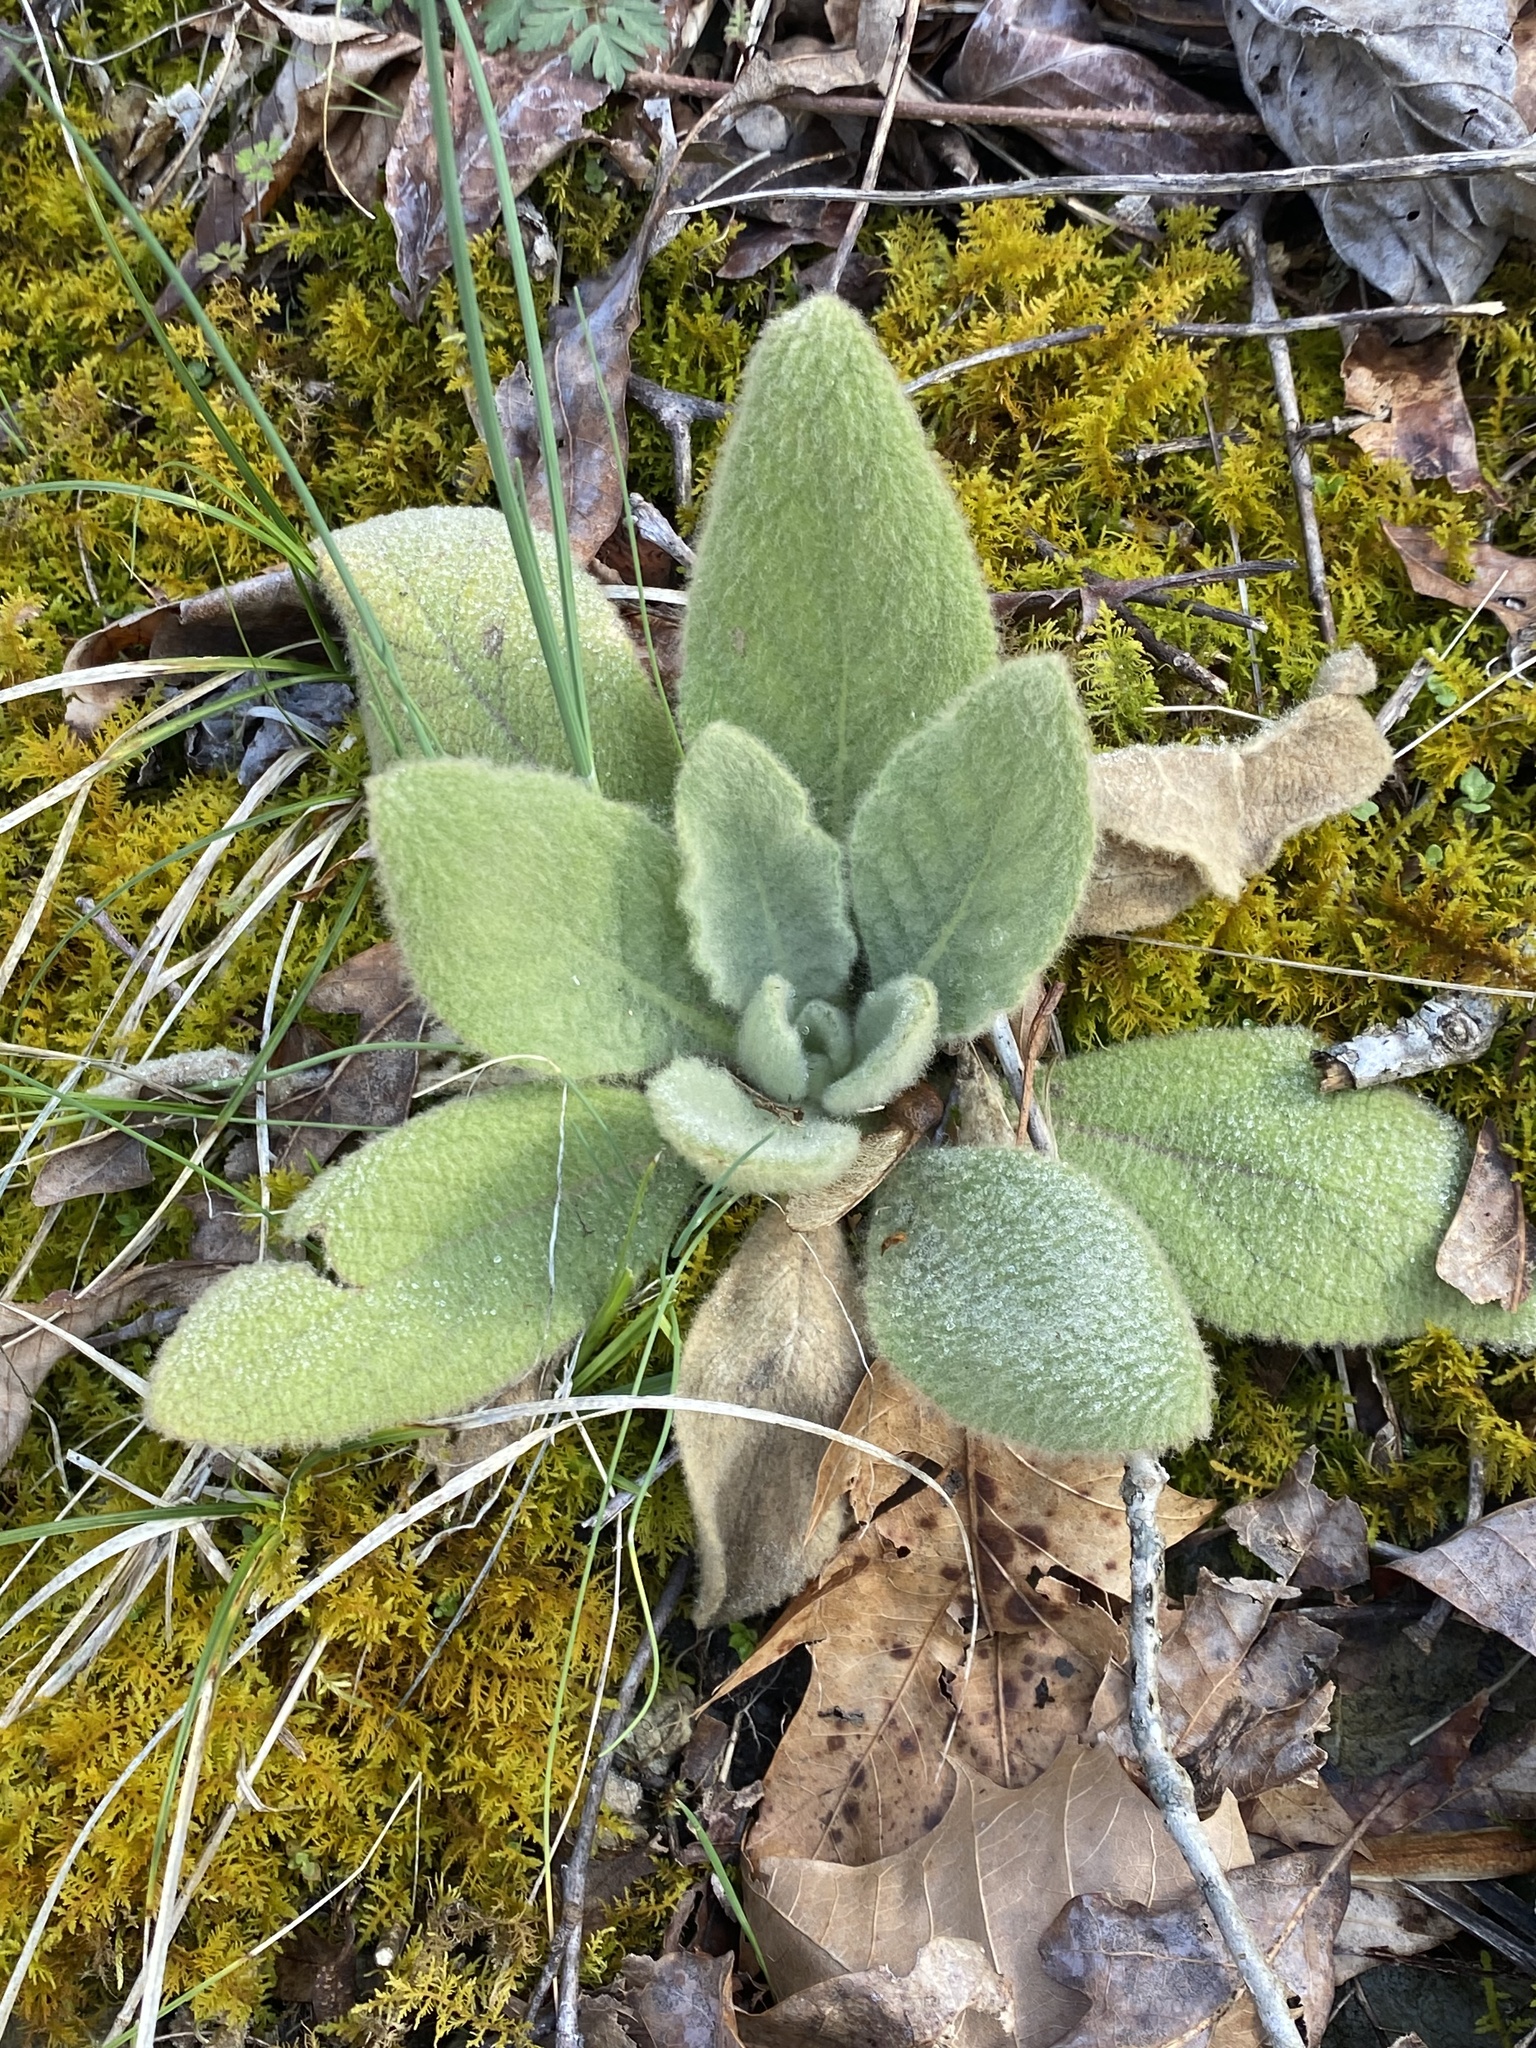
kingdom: Plantae
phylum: Tracheophyta
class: Magnoliopsida
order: Lamiales
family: Scrophulariaceae
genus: Verbascum
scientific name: Verbascum thapsus
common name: Common mullein
